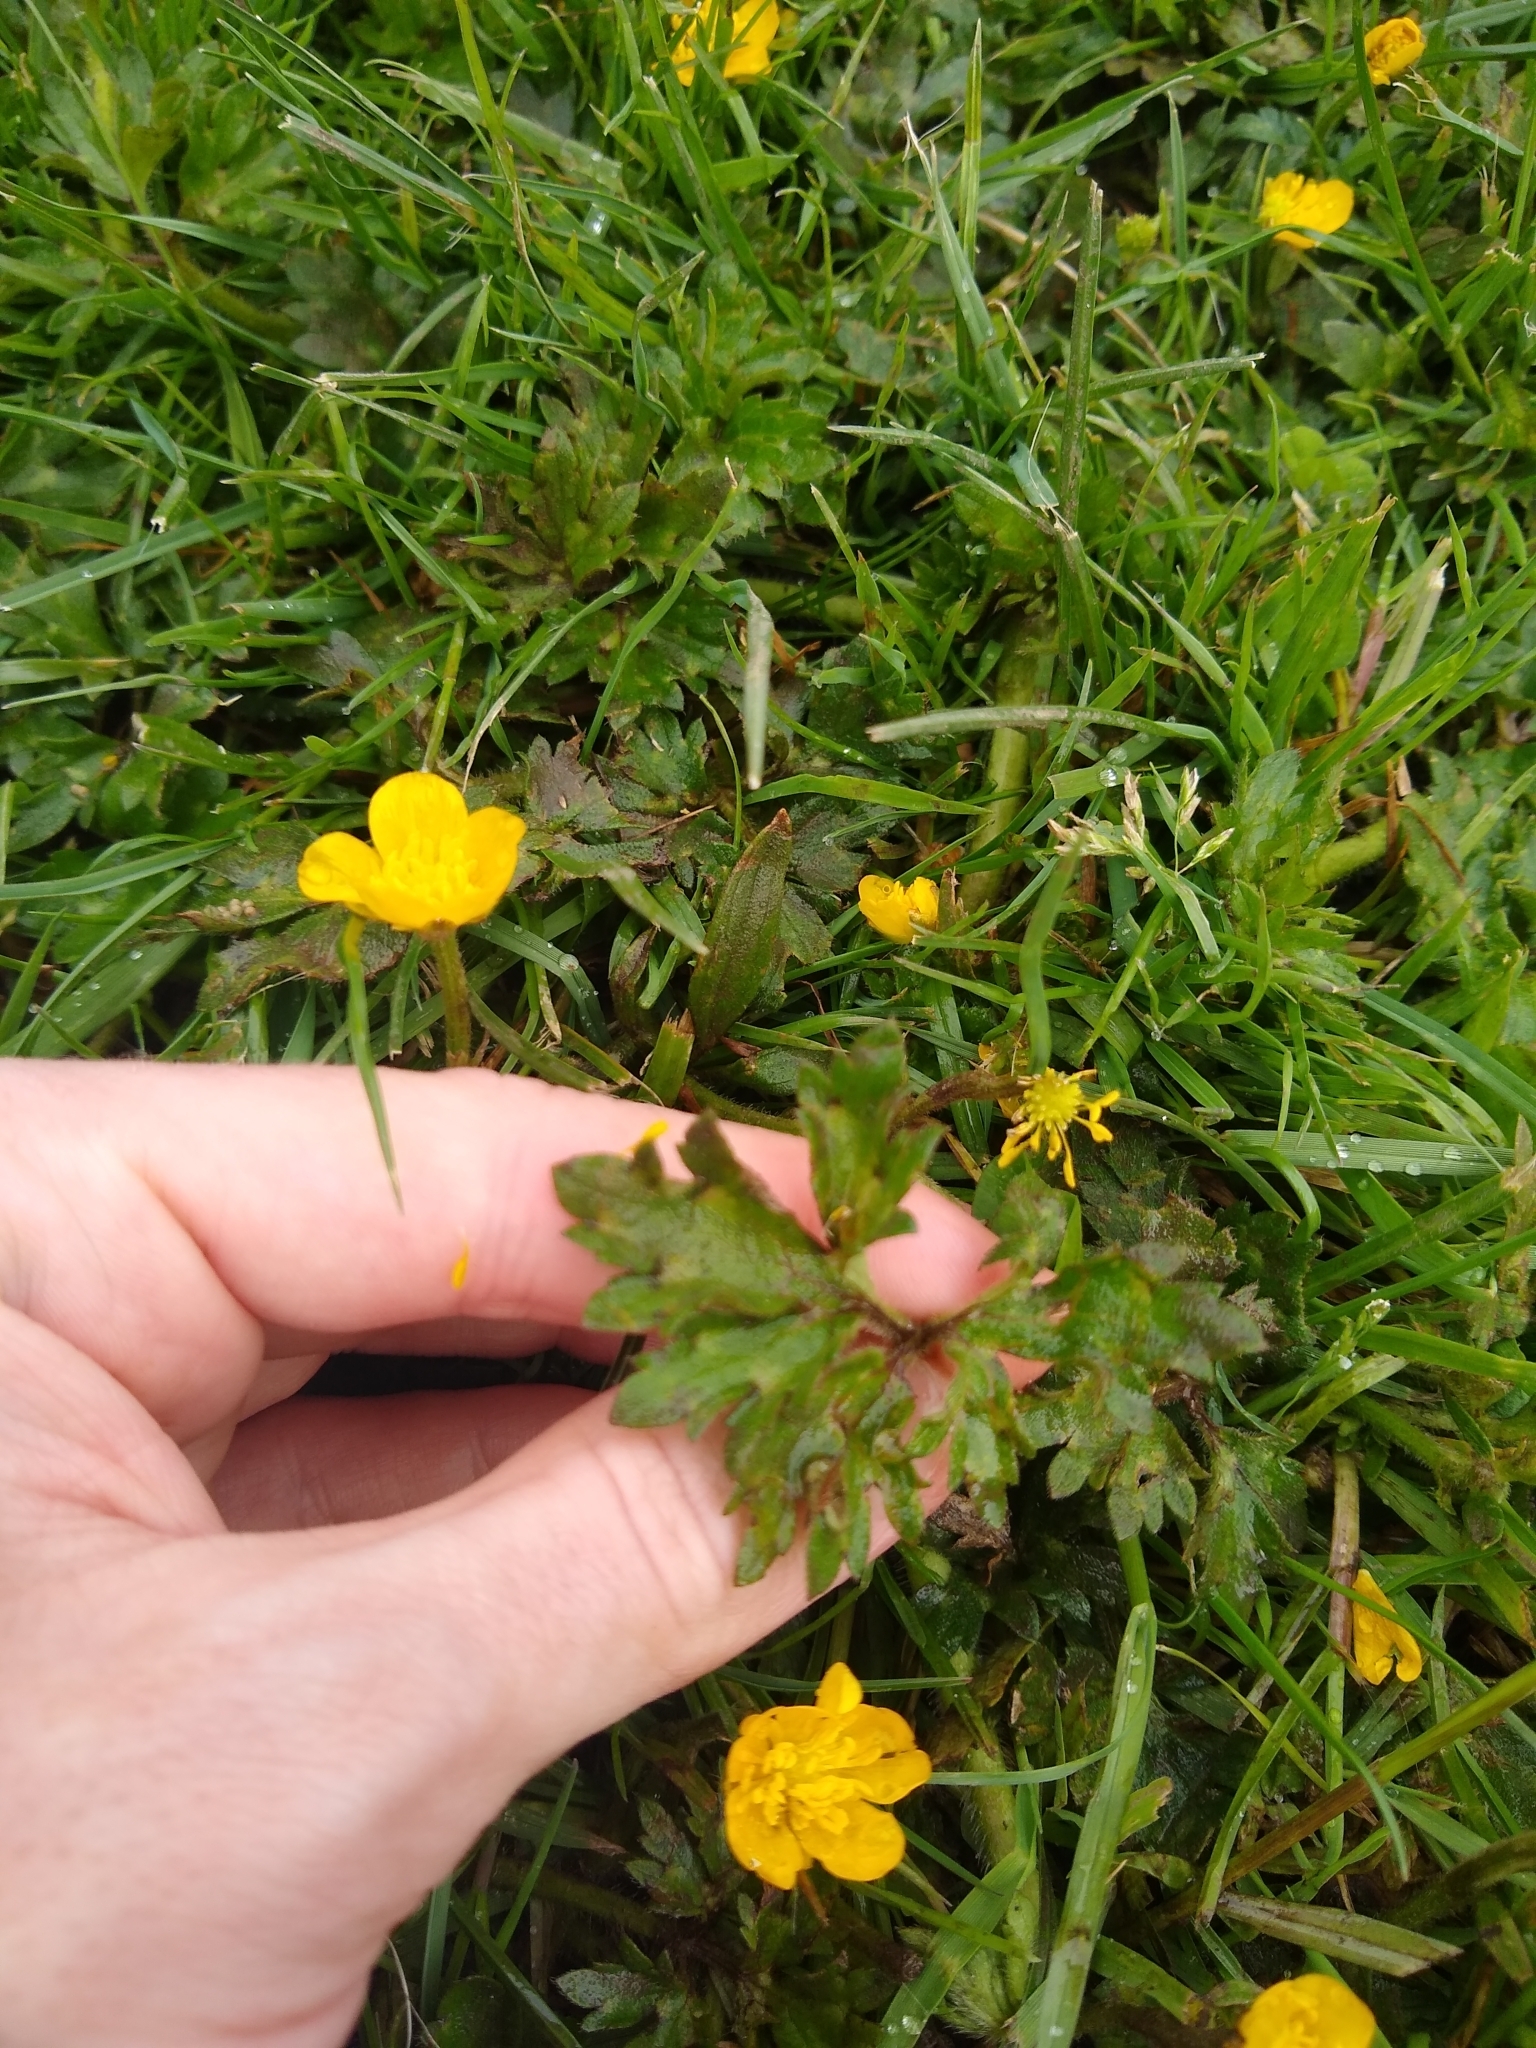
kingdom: Plantae
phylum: Tracheophyta
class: Magnoliopsida
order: Ranunculales
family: Ranunculaceae
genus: Ranunculus
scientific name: Ranunculus repens
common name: Creeping buttercup
